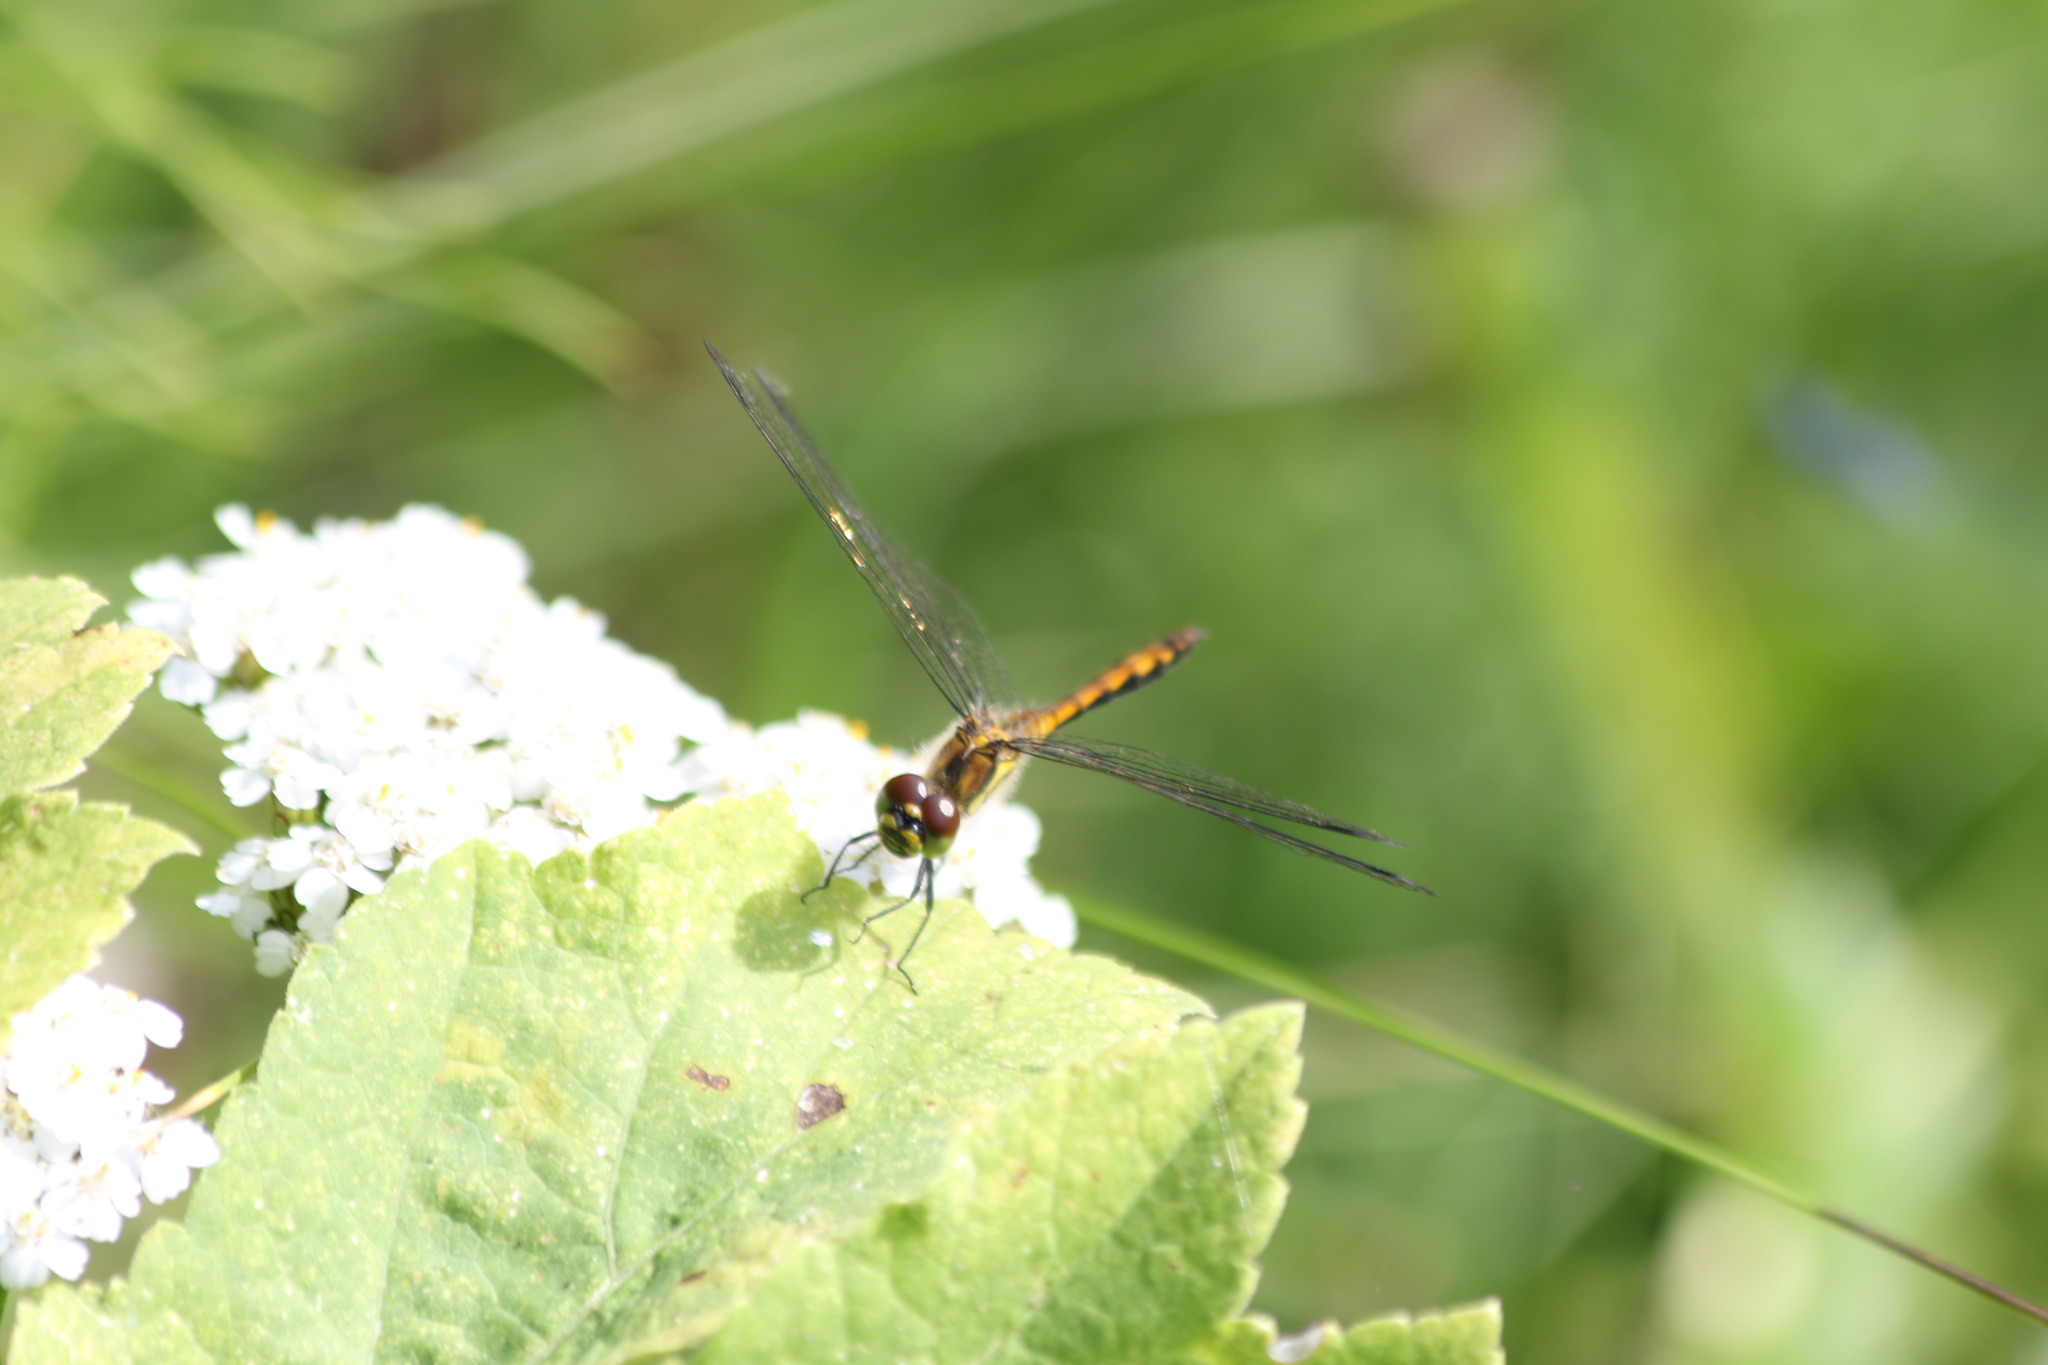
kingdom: Animalia
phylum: Arthropoda
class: Insecta
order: Odonata
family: Libellulidae
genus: Sympetrum
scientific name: Sympetrum danae
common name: Black darter
